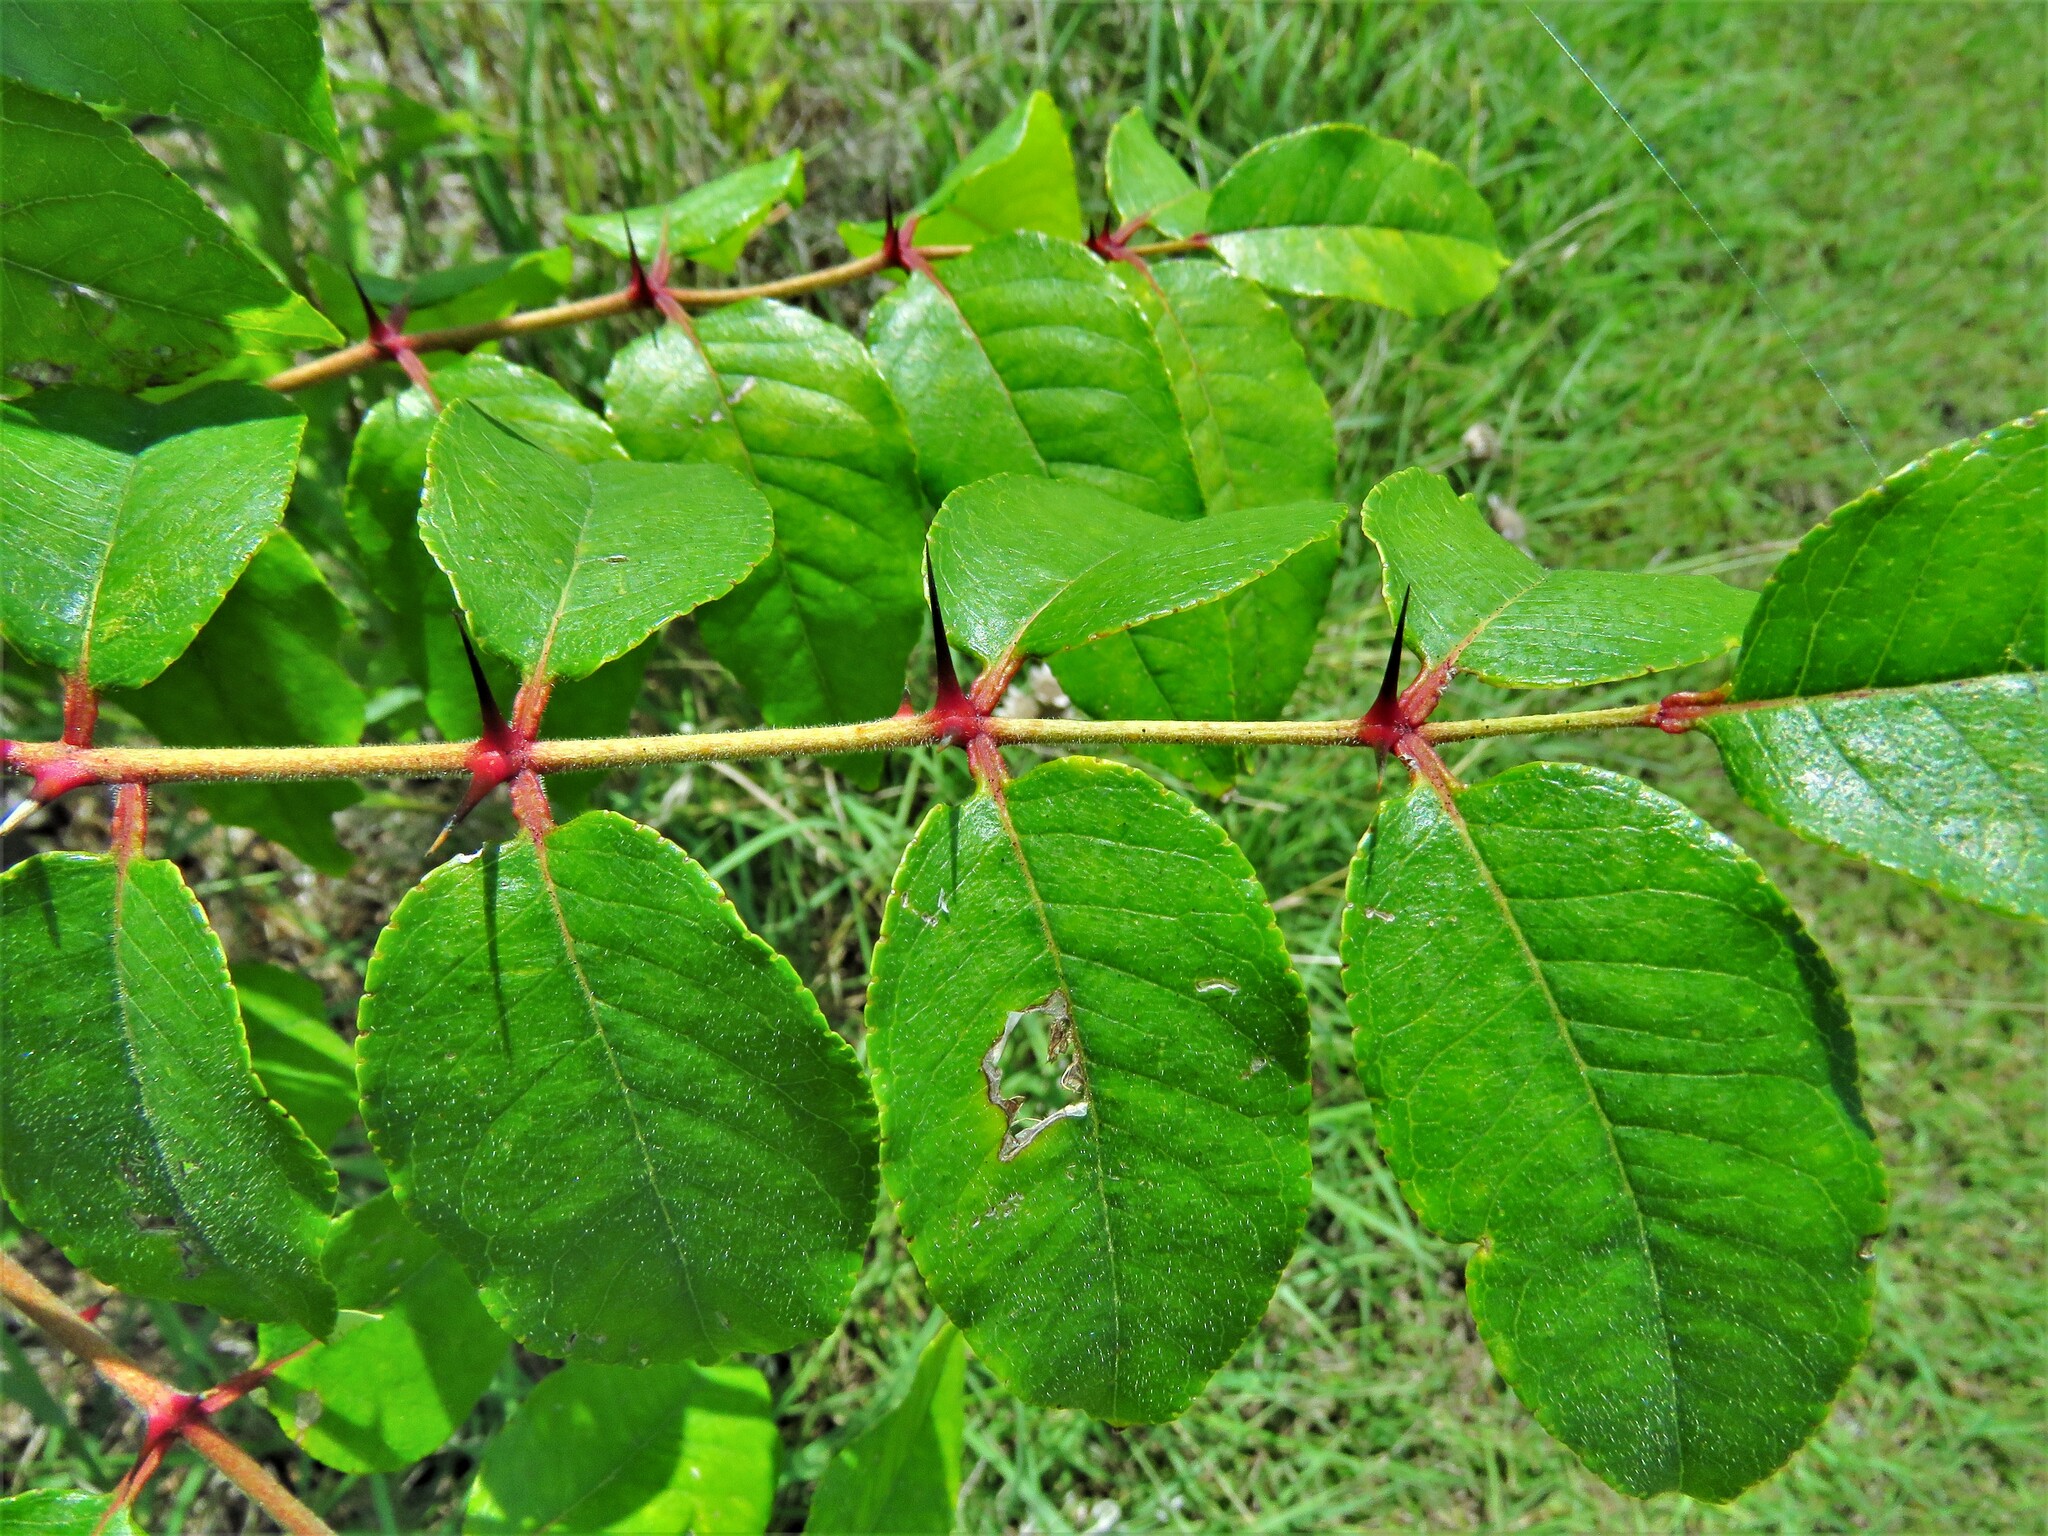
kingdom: Plantae
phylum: Tracheophyta
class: Magnoliopsida
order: Sapindales
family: Rutaceae
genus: Zanthoxylum
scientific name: Zanthoxylum clava-herculis
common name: Hercules'-club
